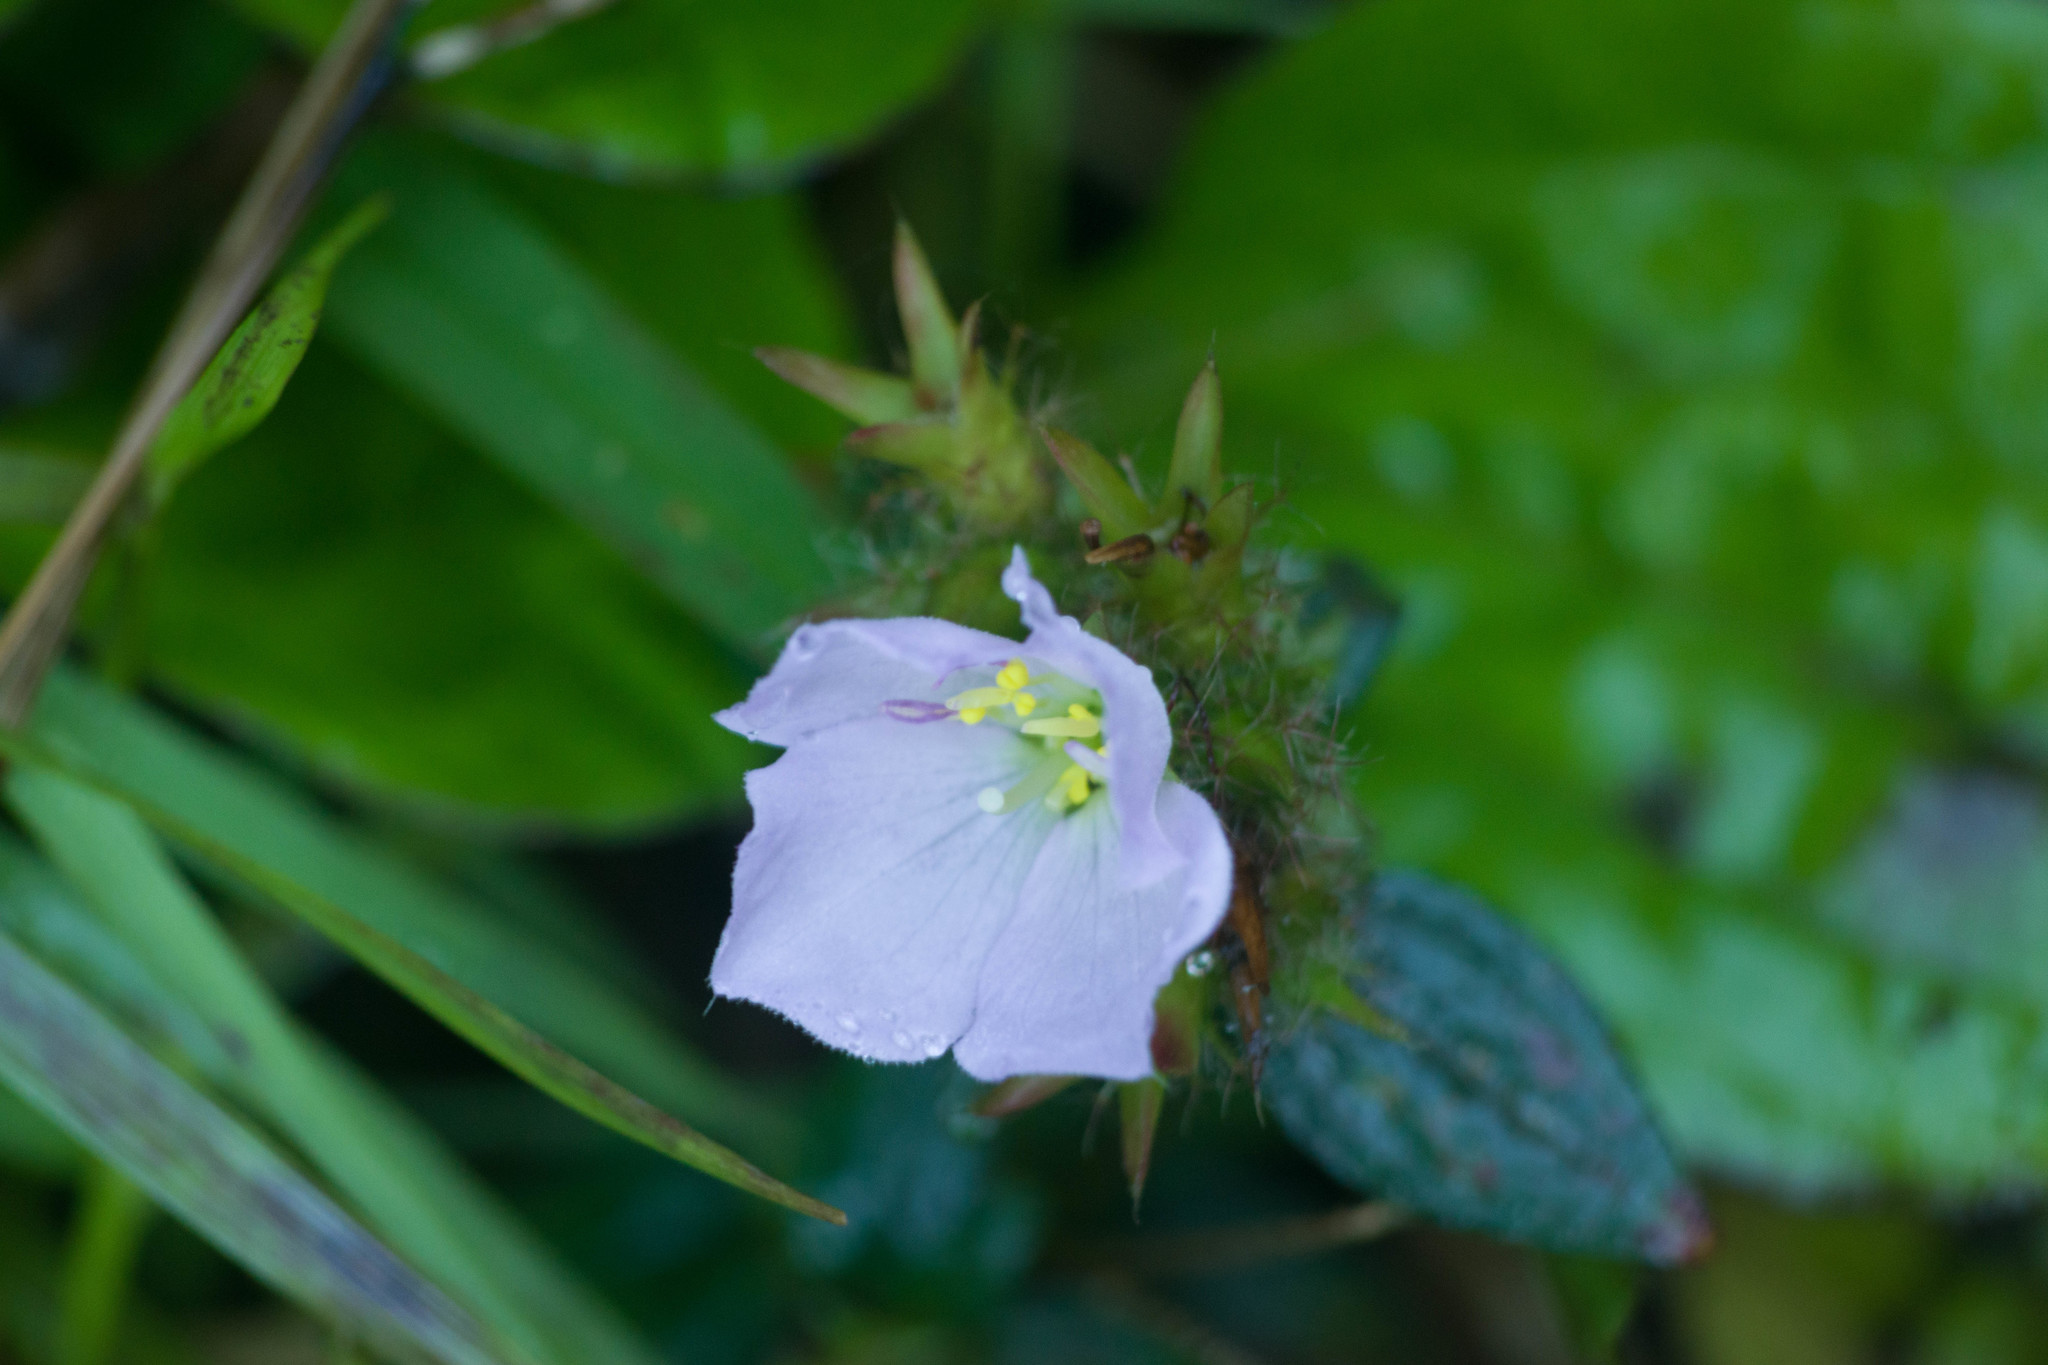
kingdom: Plantae
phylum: Tracheophyta
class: Magnoliopsida
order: Myrtales
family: Melastomataceae
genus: Pterolepis
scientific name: Pterolepis glomerata
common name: False meadowbeauty
